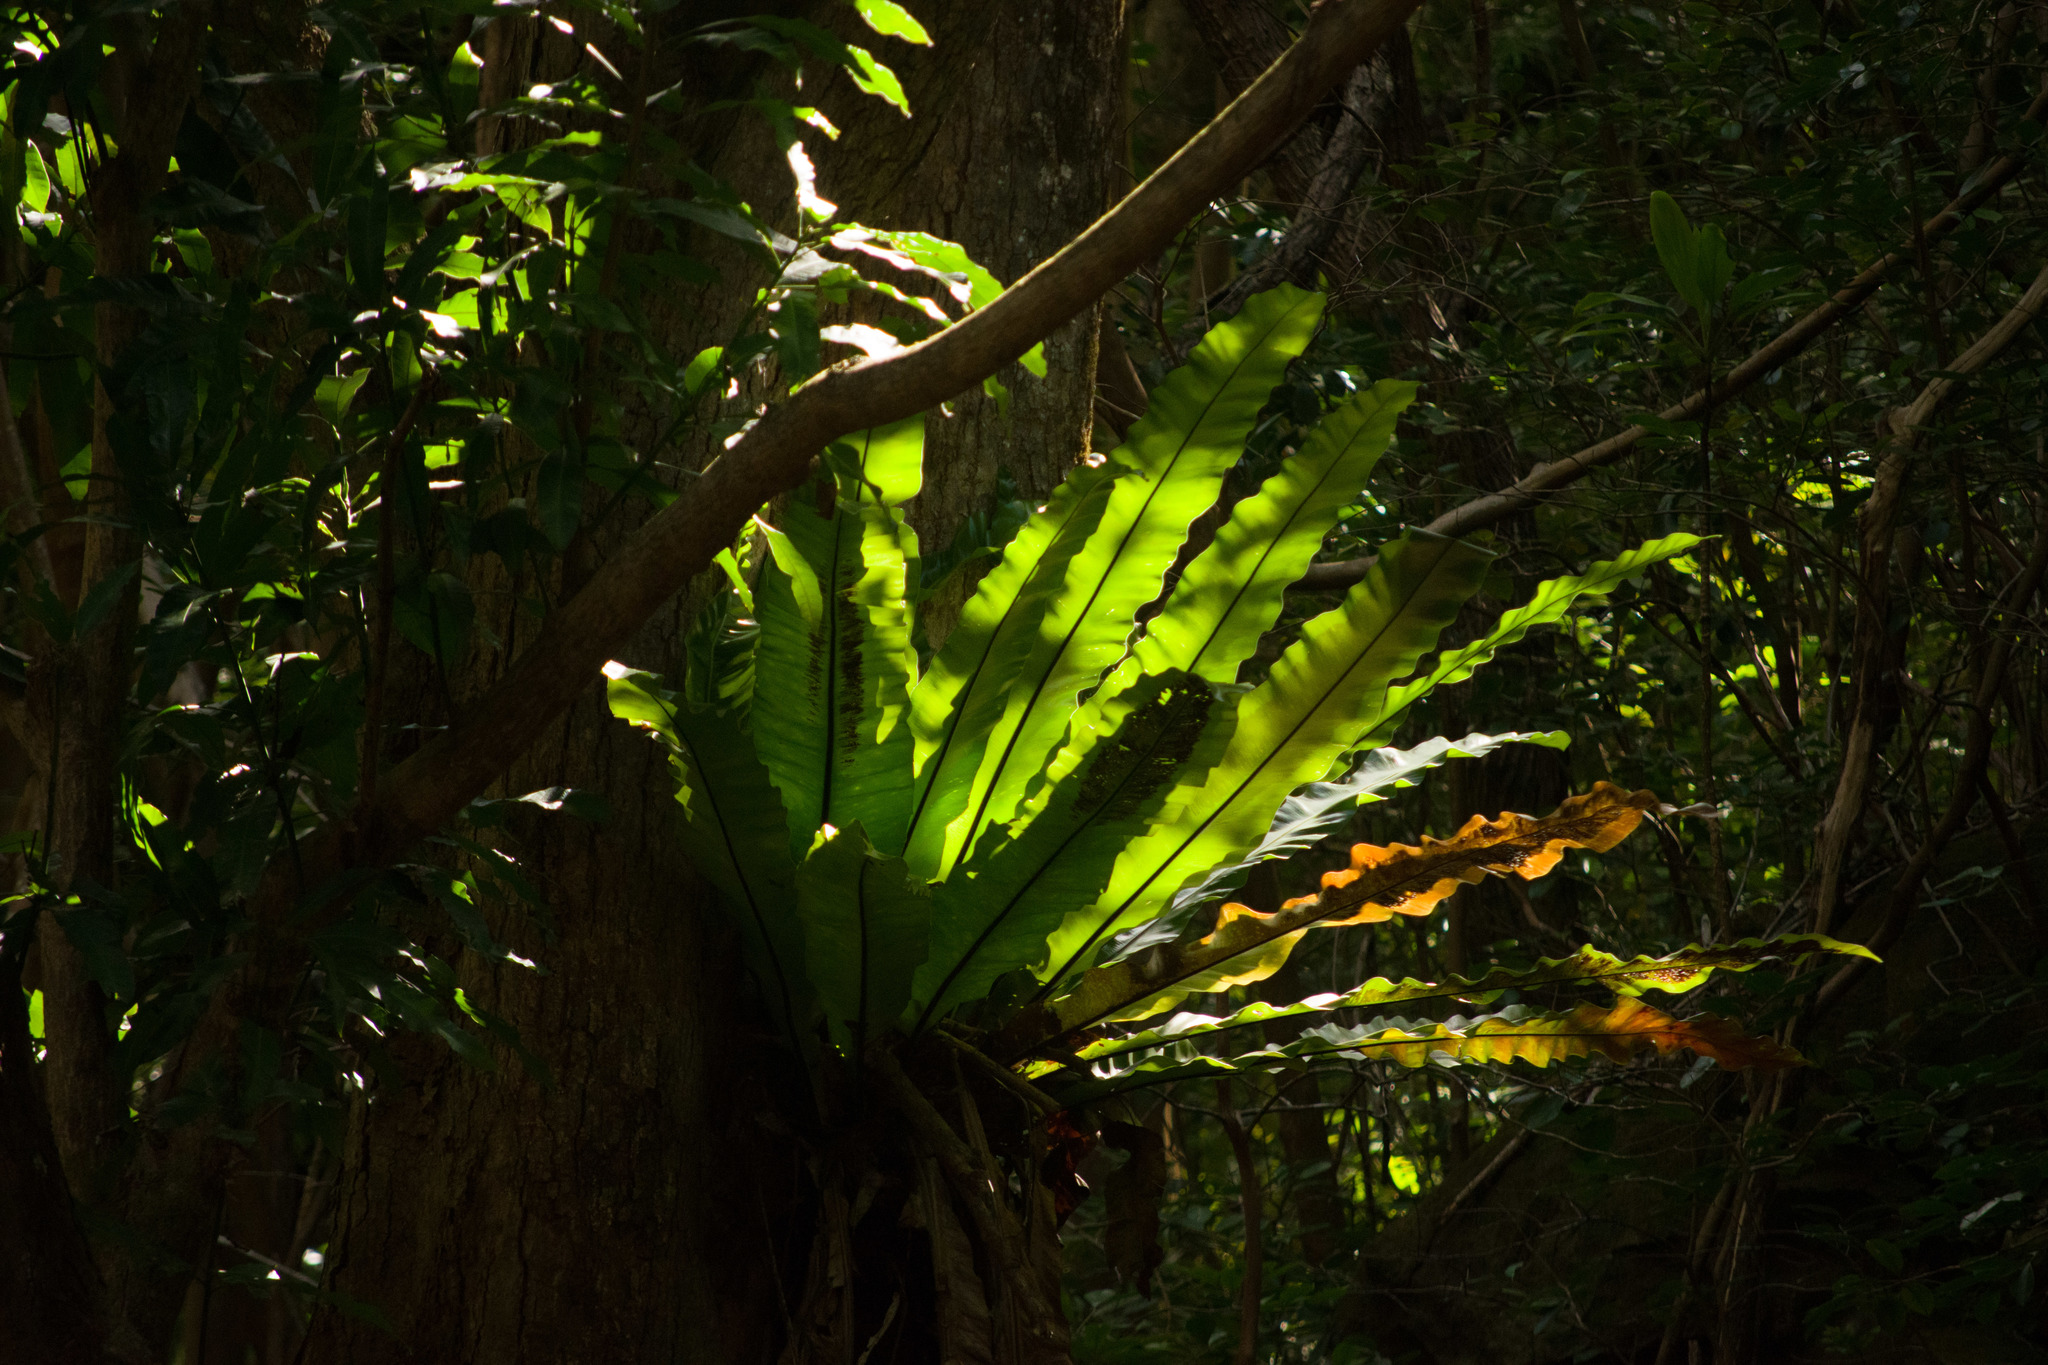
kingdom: Plantae
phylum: Tracheophyta
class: Polypodiopsida
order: Polypodiales
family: Aspleniaceae
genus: Asplenium
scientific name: Asplenium nidus
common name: Bird's-nest fern
